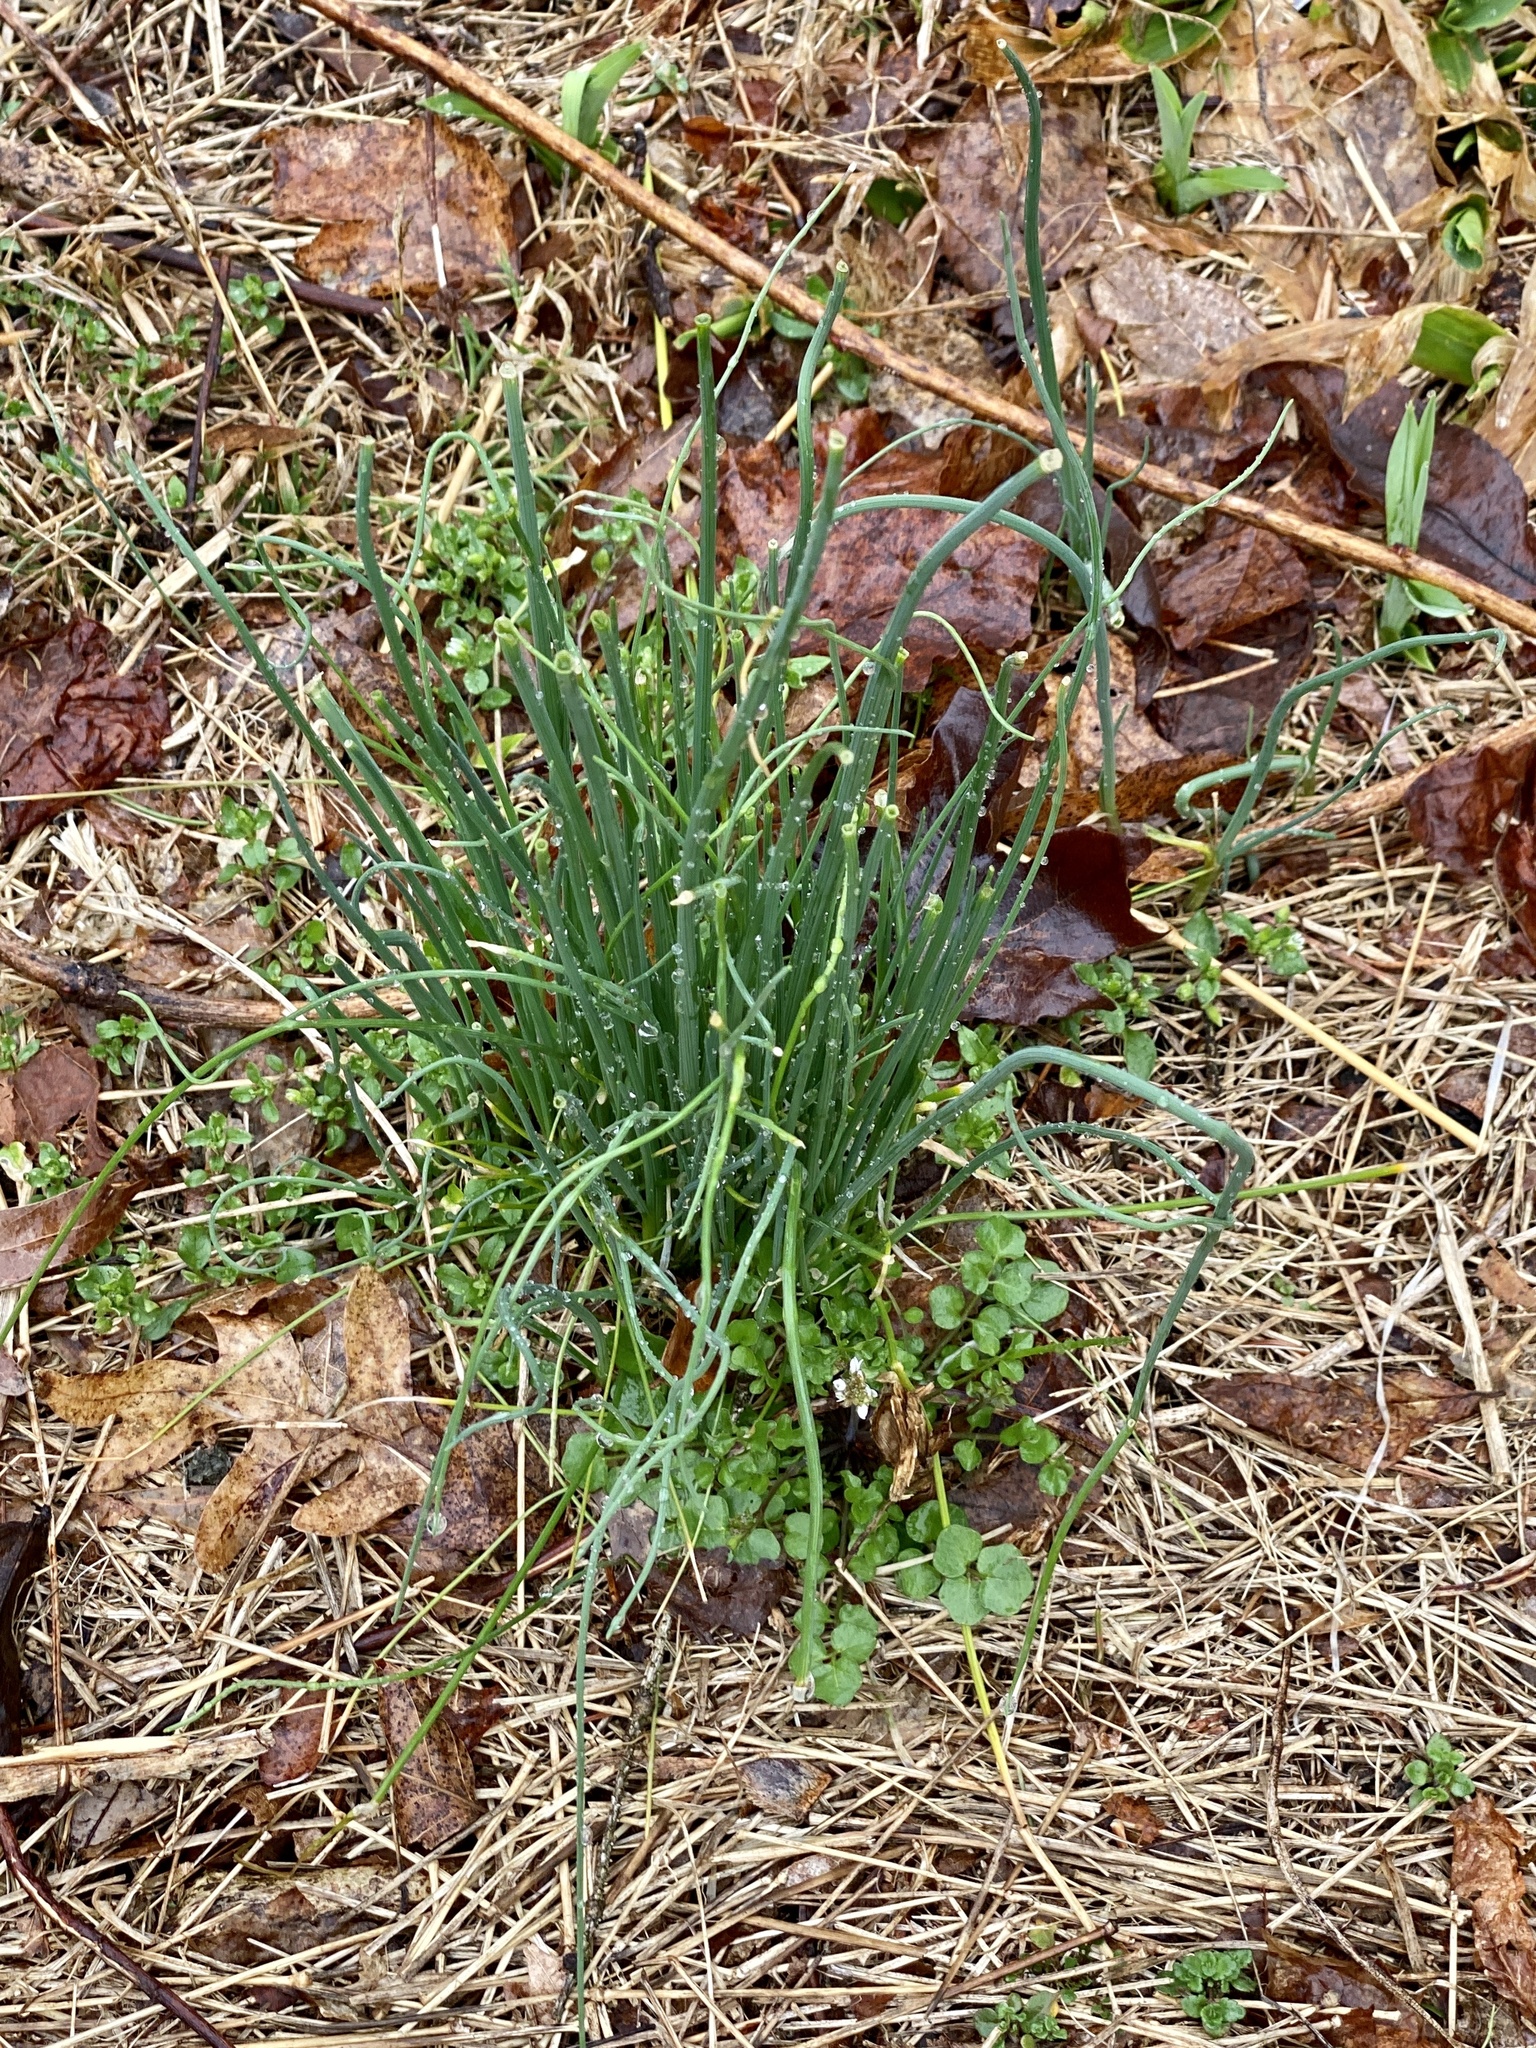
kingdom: Plantae
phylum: Tracheophyta
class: Liliopsida
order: Asparagales
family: Amaryllidaceae
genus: Allium
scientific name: Allium vineale
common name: Crow garlic
